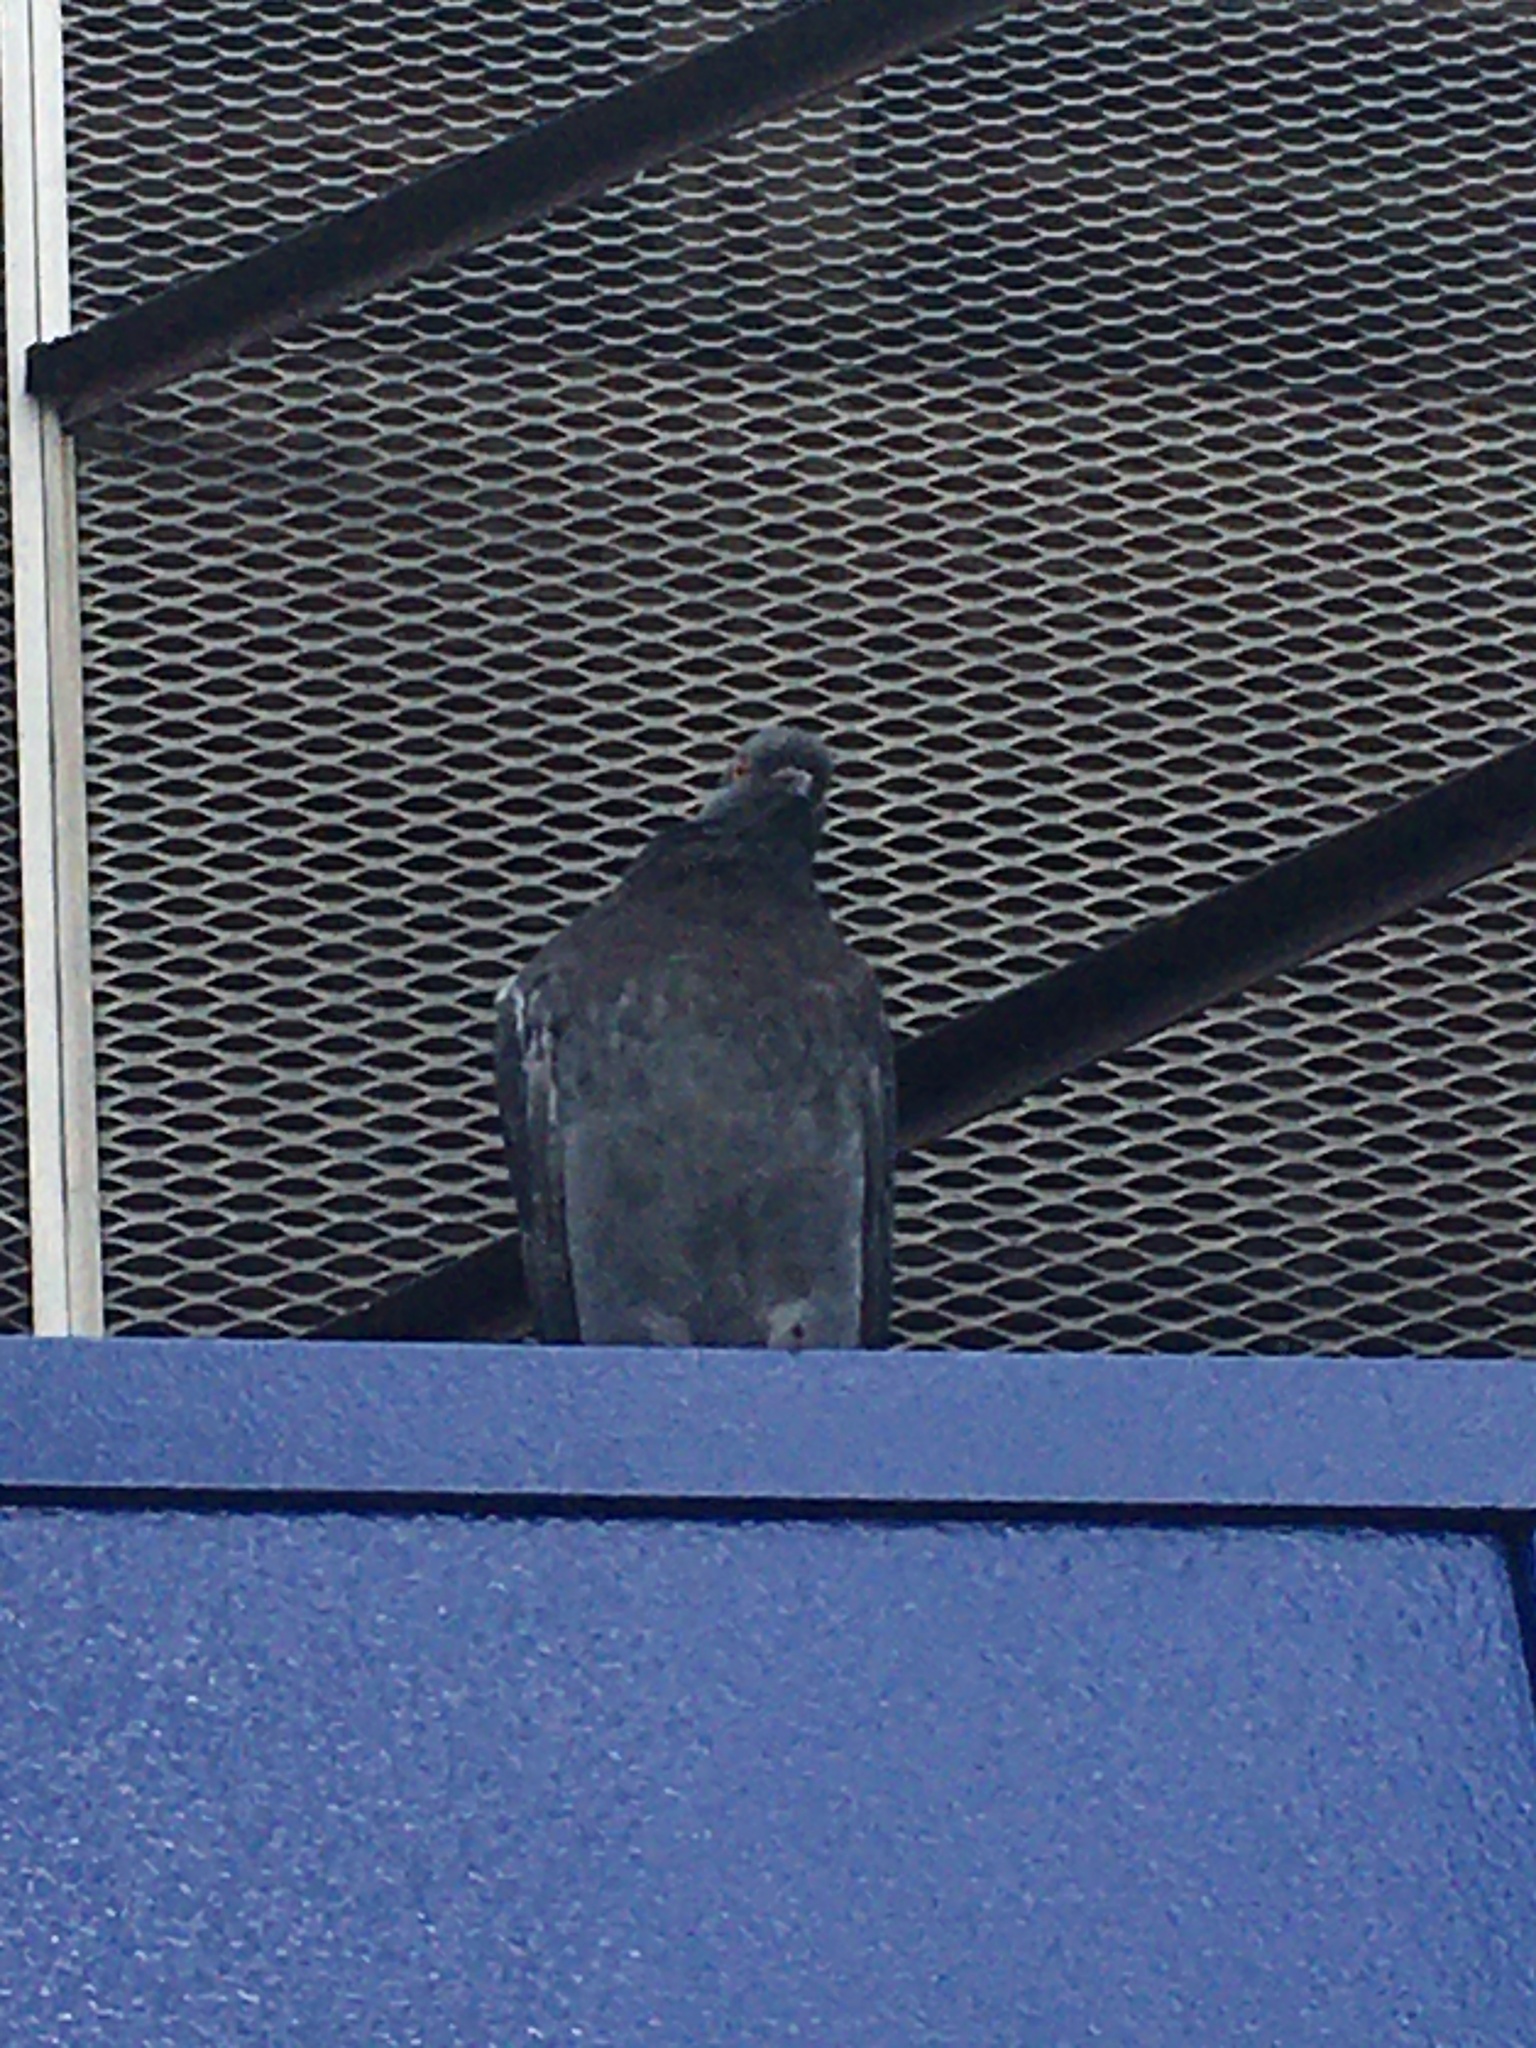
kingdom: Animalia
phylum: Chordata
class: Aves
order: Columbiformes
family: Columbidae
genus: Columba
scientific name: Columba livia
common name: Rock pigeon
